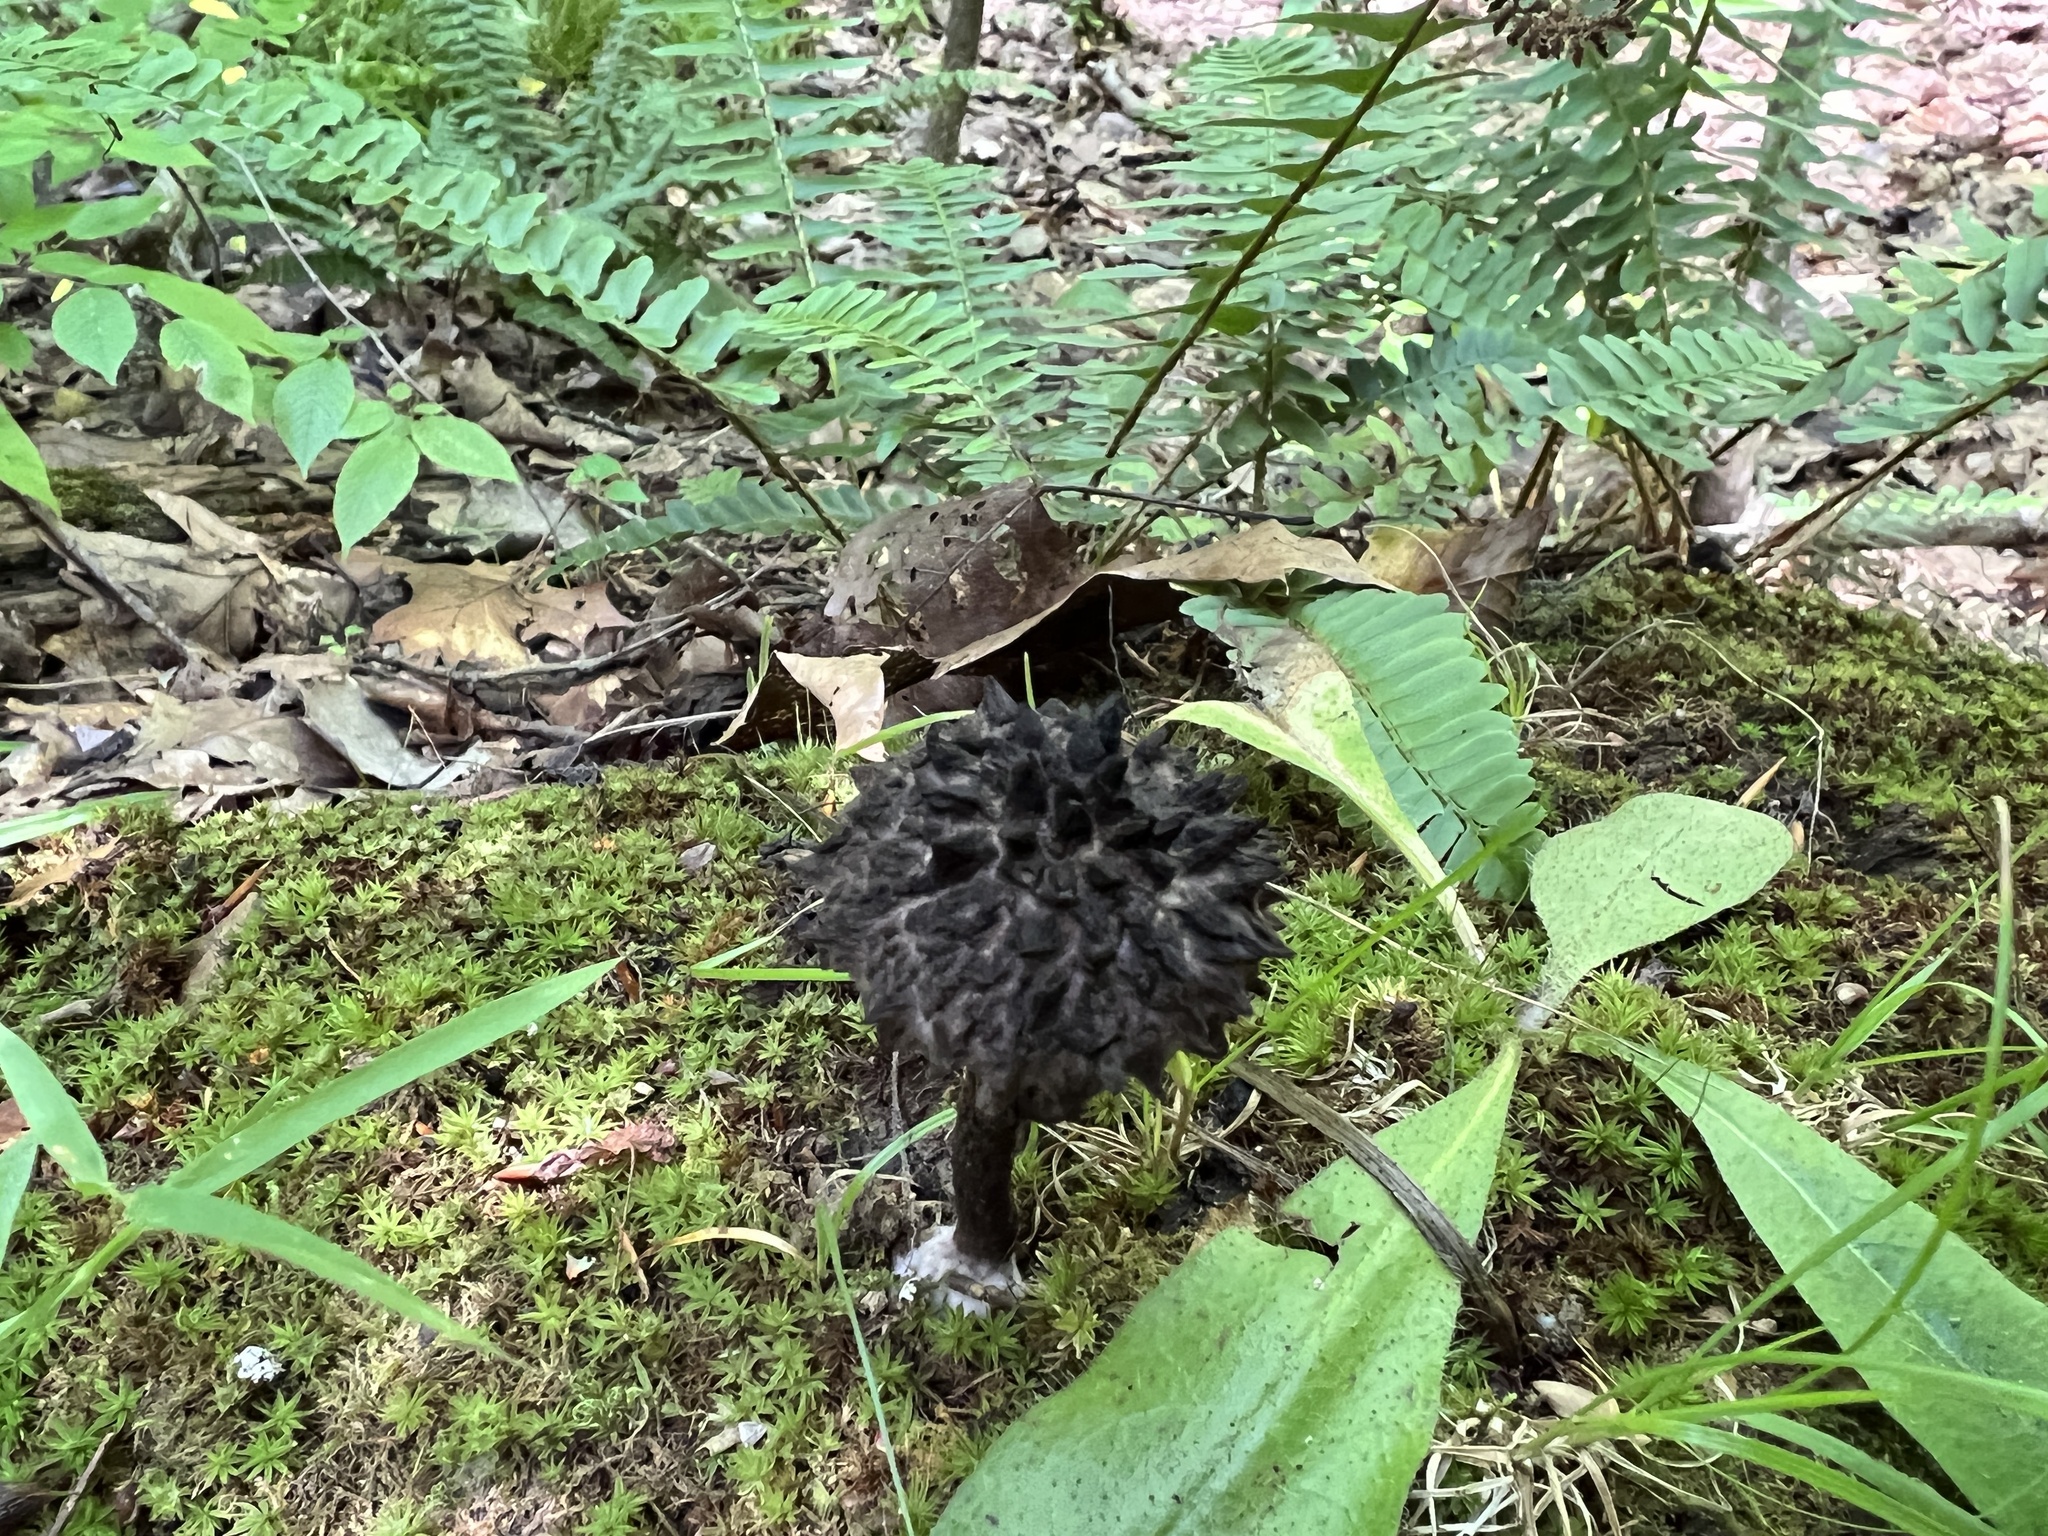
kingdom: Fungi
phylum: Basidiomycota
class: Agaricomycetes
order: Boletales
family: Boletaceae
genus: Strobilomyces
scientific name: Strobilomyces strobilaceus
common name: Old man of the woods
